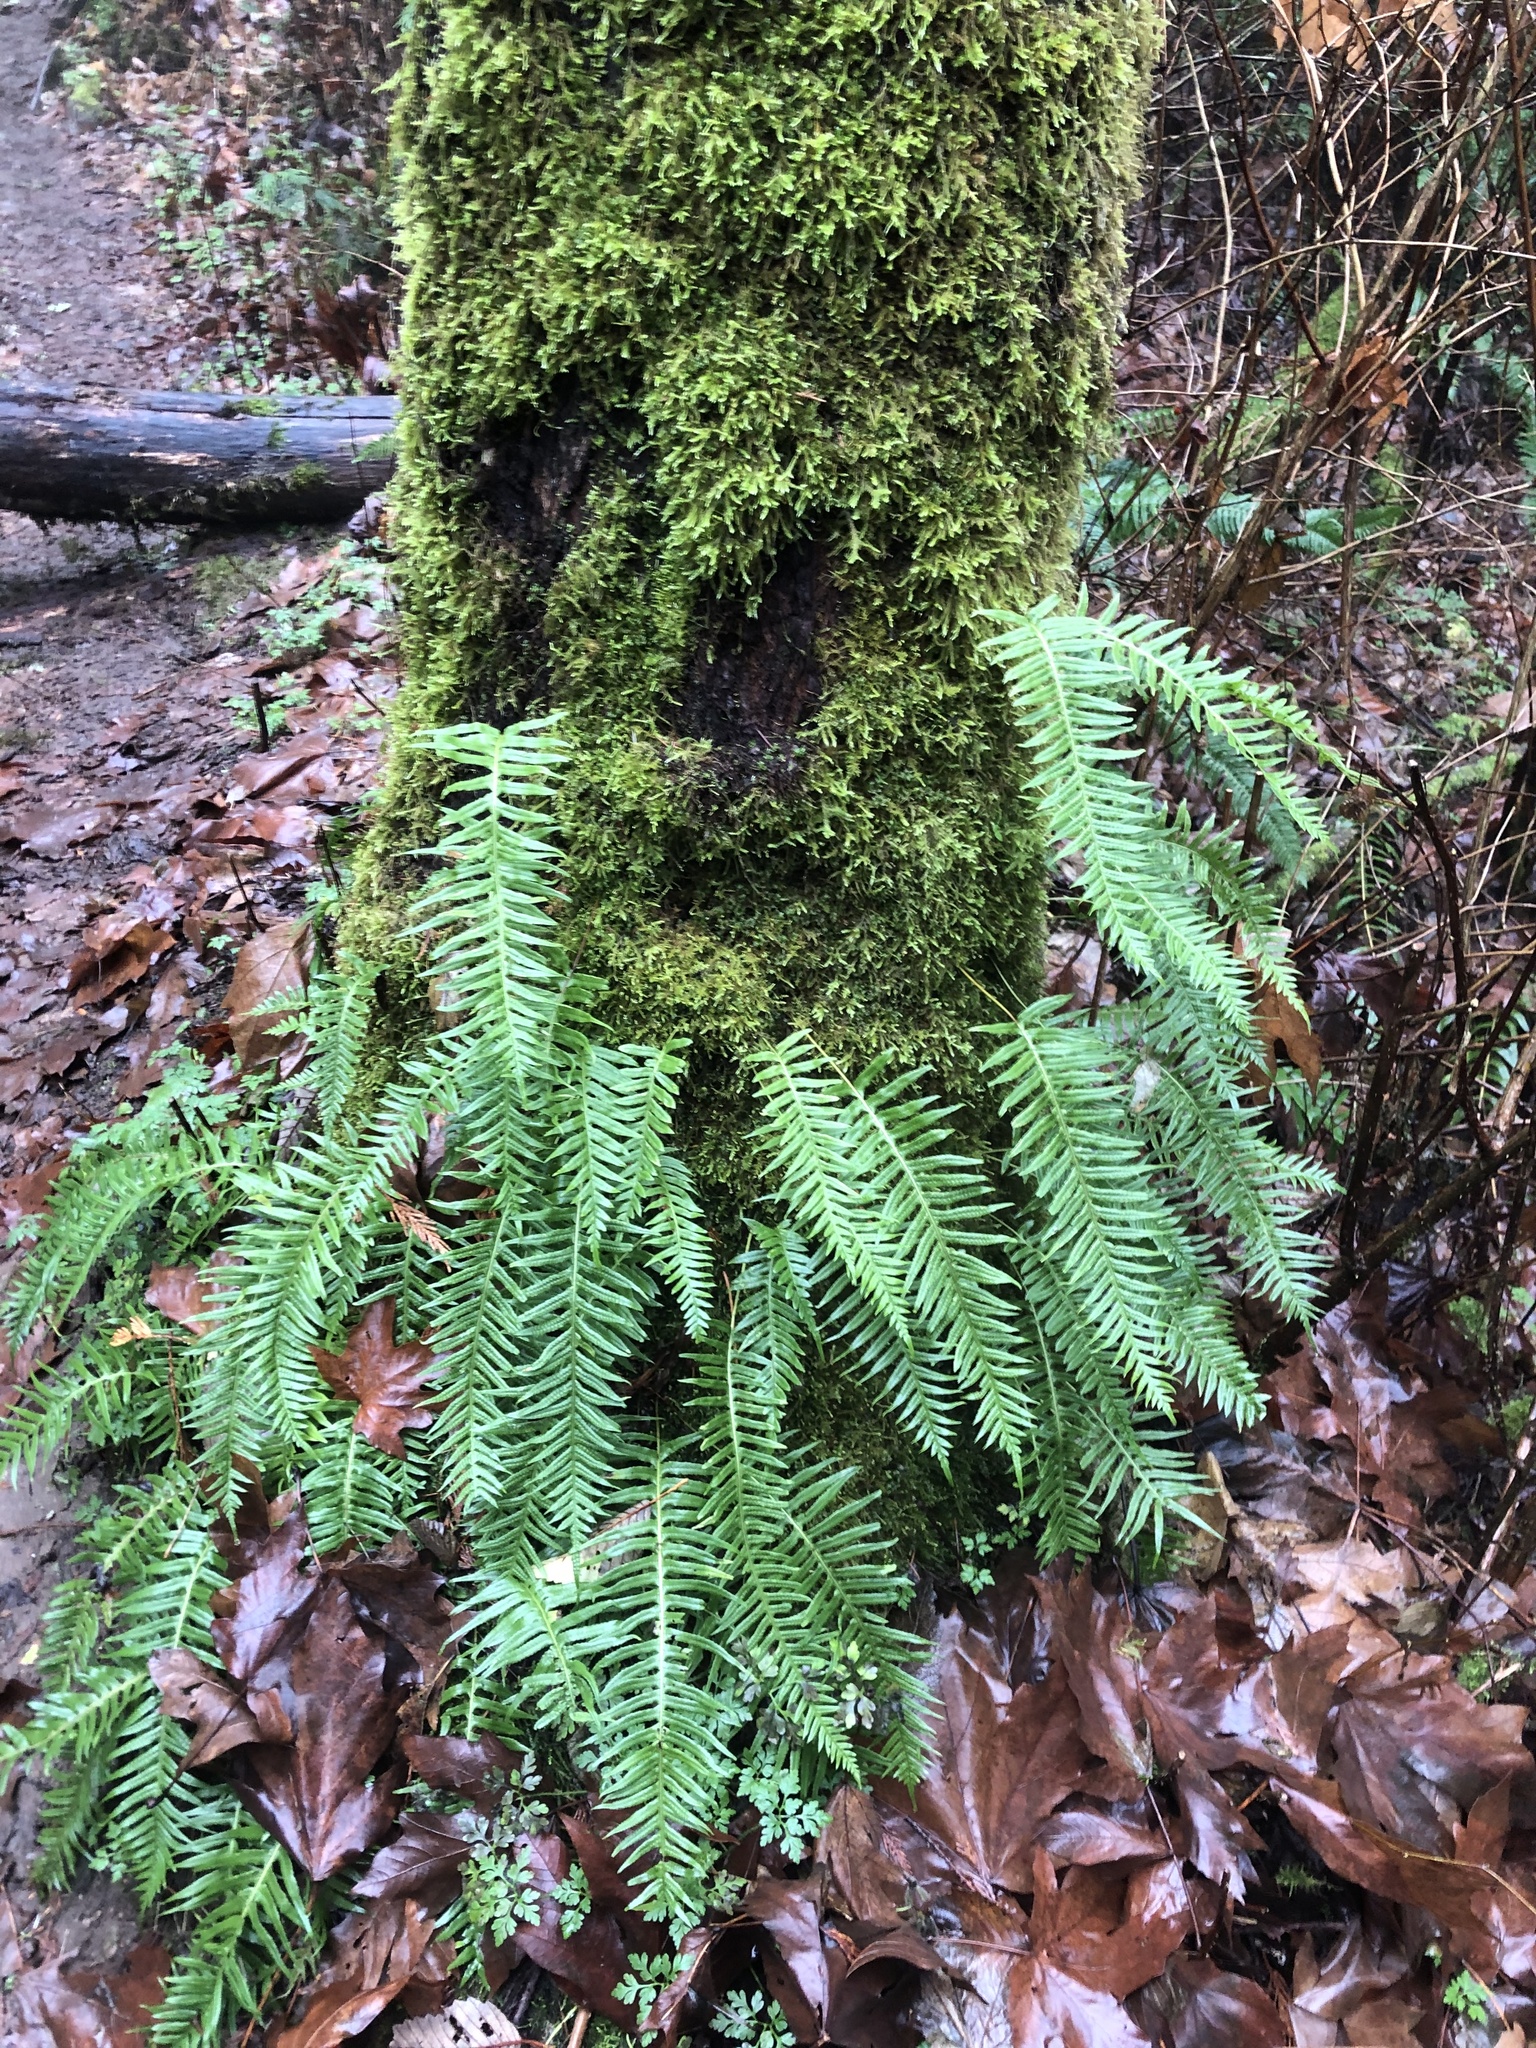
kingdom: Plantae
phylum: Tracheophyta
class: Polypodiopsida
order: Polypodiales
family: Polypodiaceae
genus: Polypodium
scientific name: Polypodium glycyrrhiza
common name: Licorice fern
